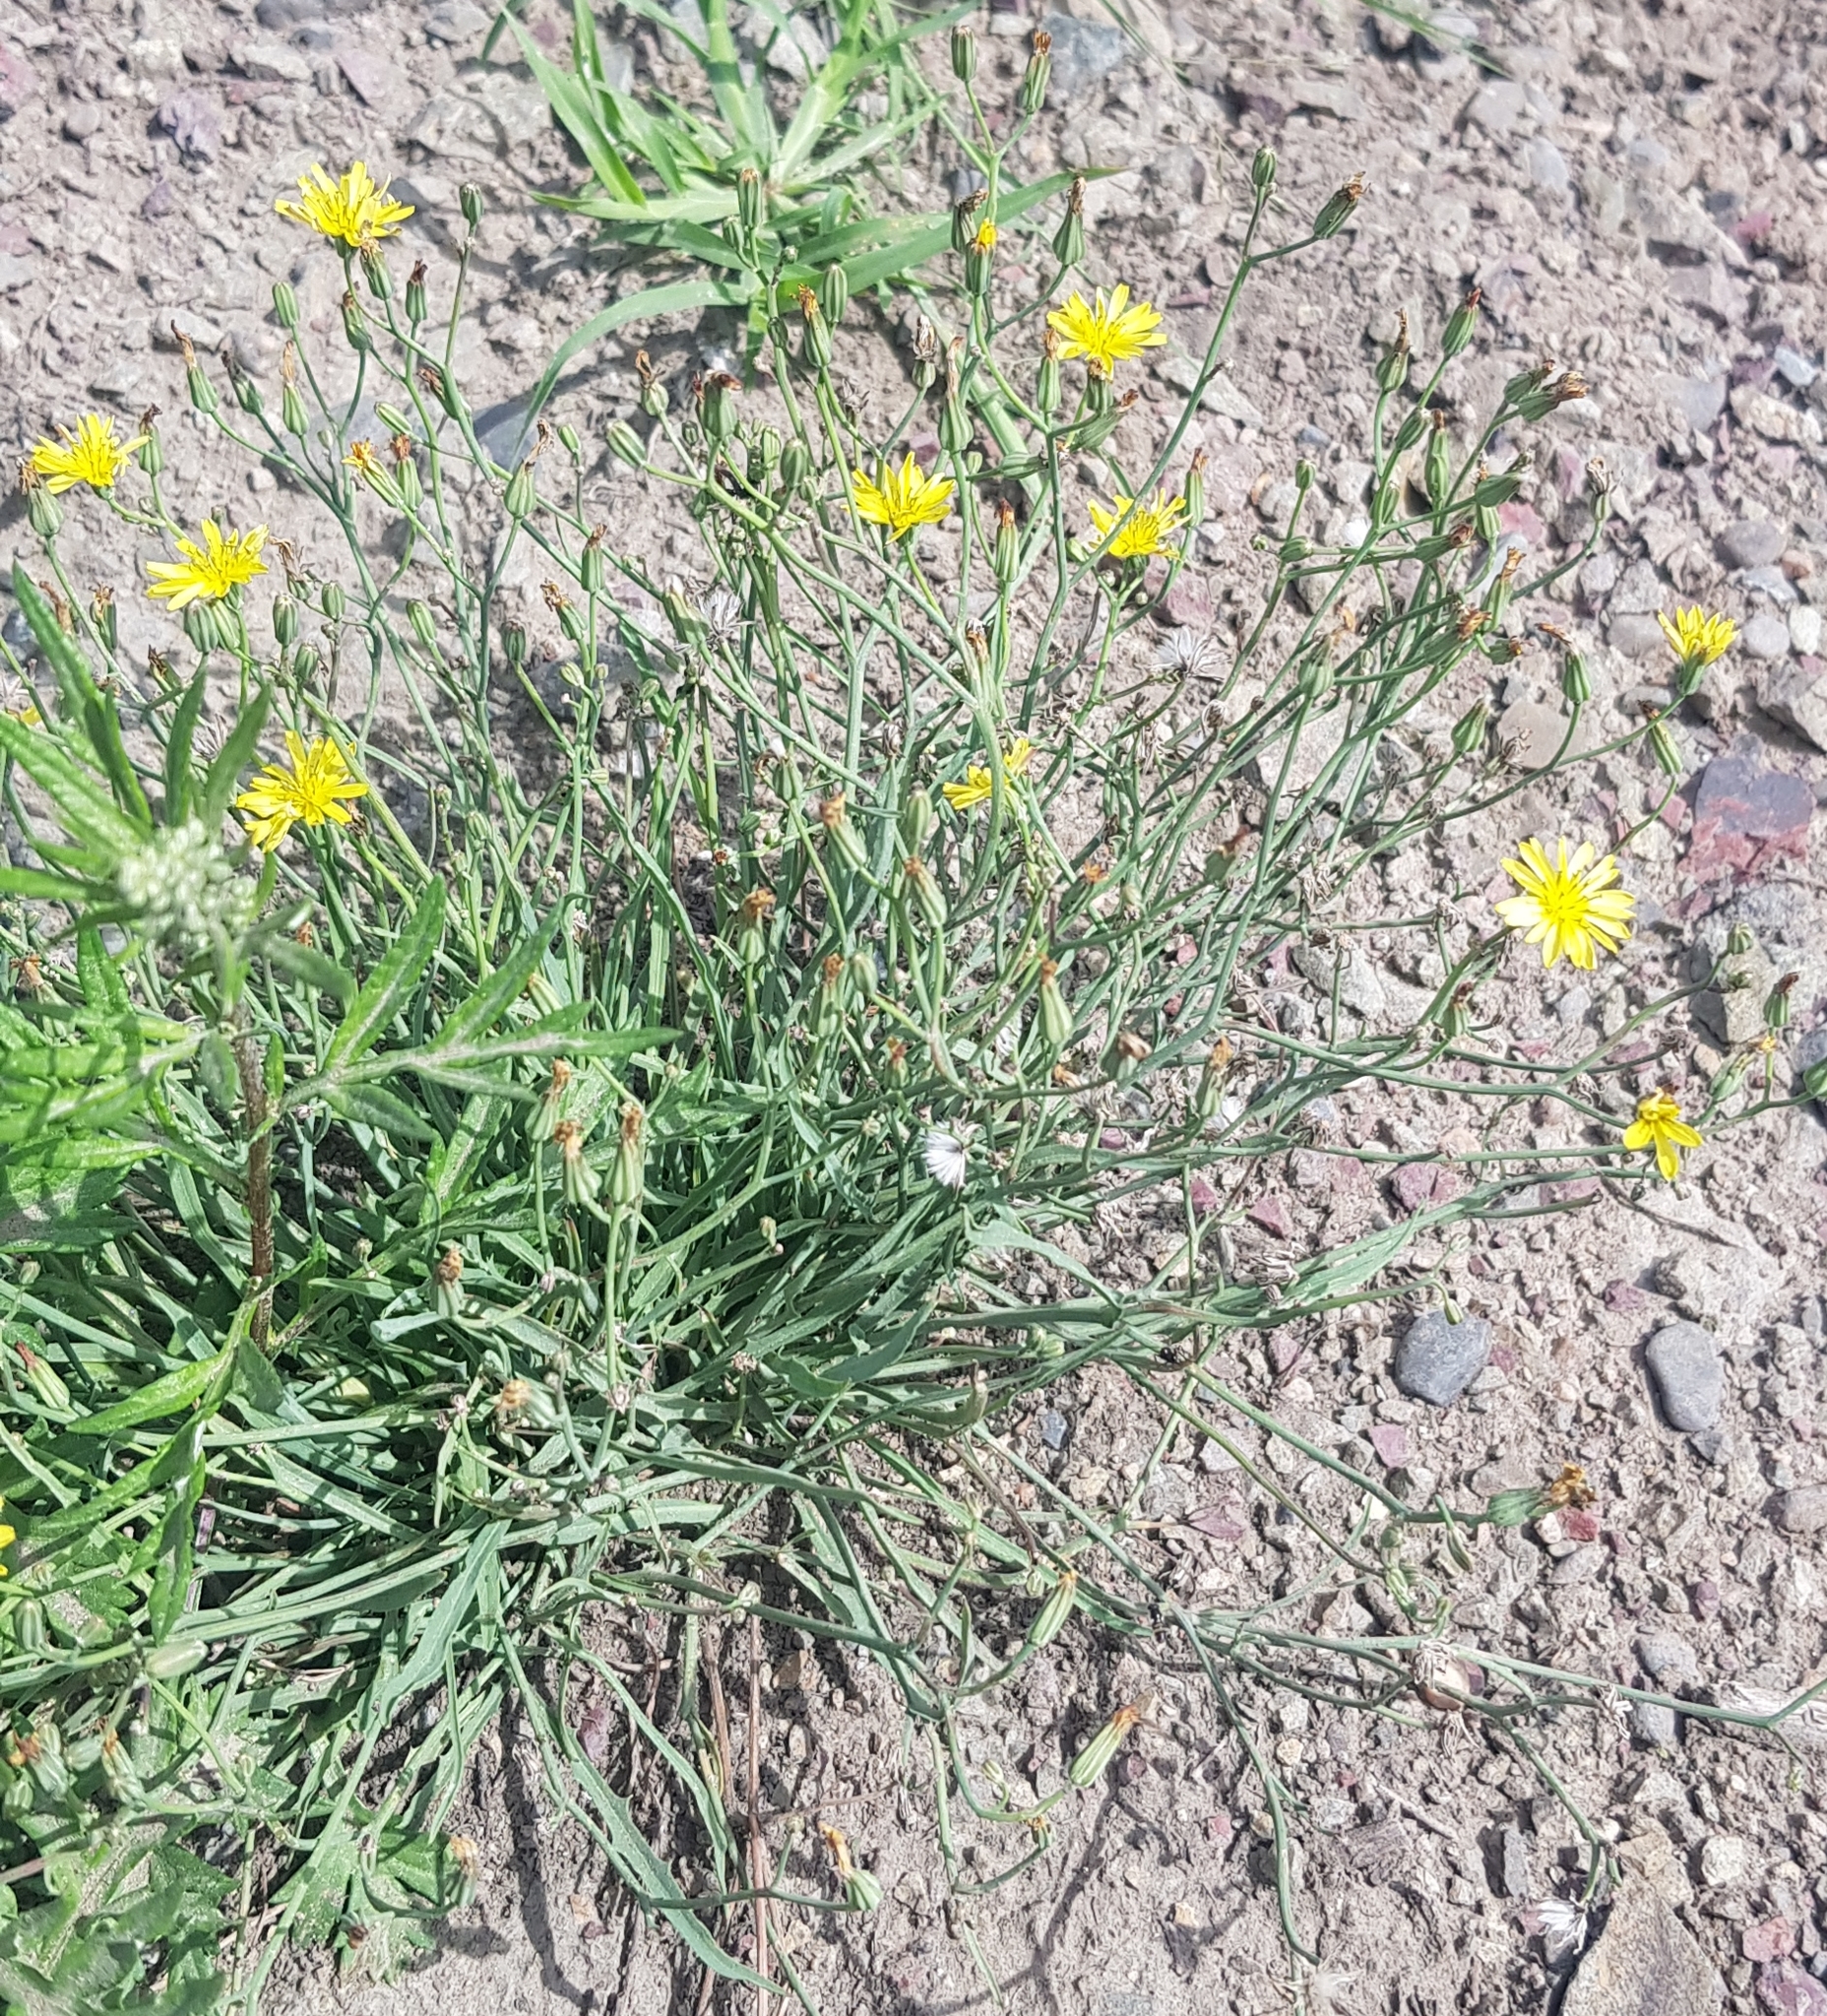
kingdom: Plantae
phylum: Tracheophyta
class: Magnoliopsida
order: Asterales
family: Asteraceae
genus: Crepidiastrum
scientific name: Crepidiastrum tenuifolium
